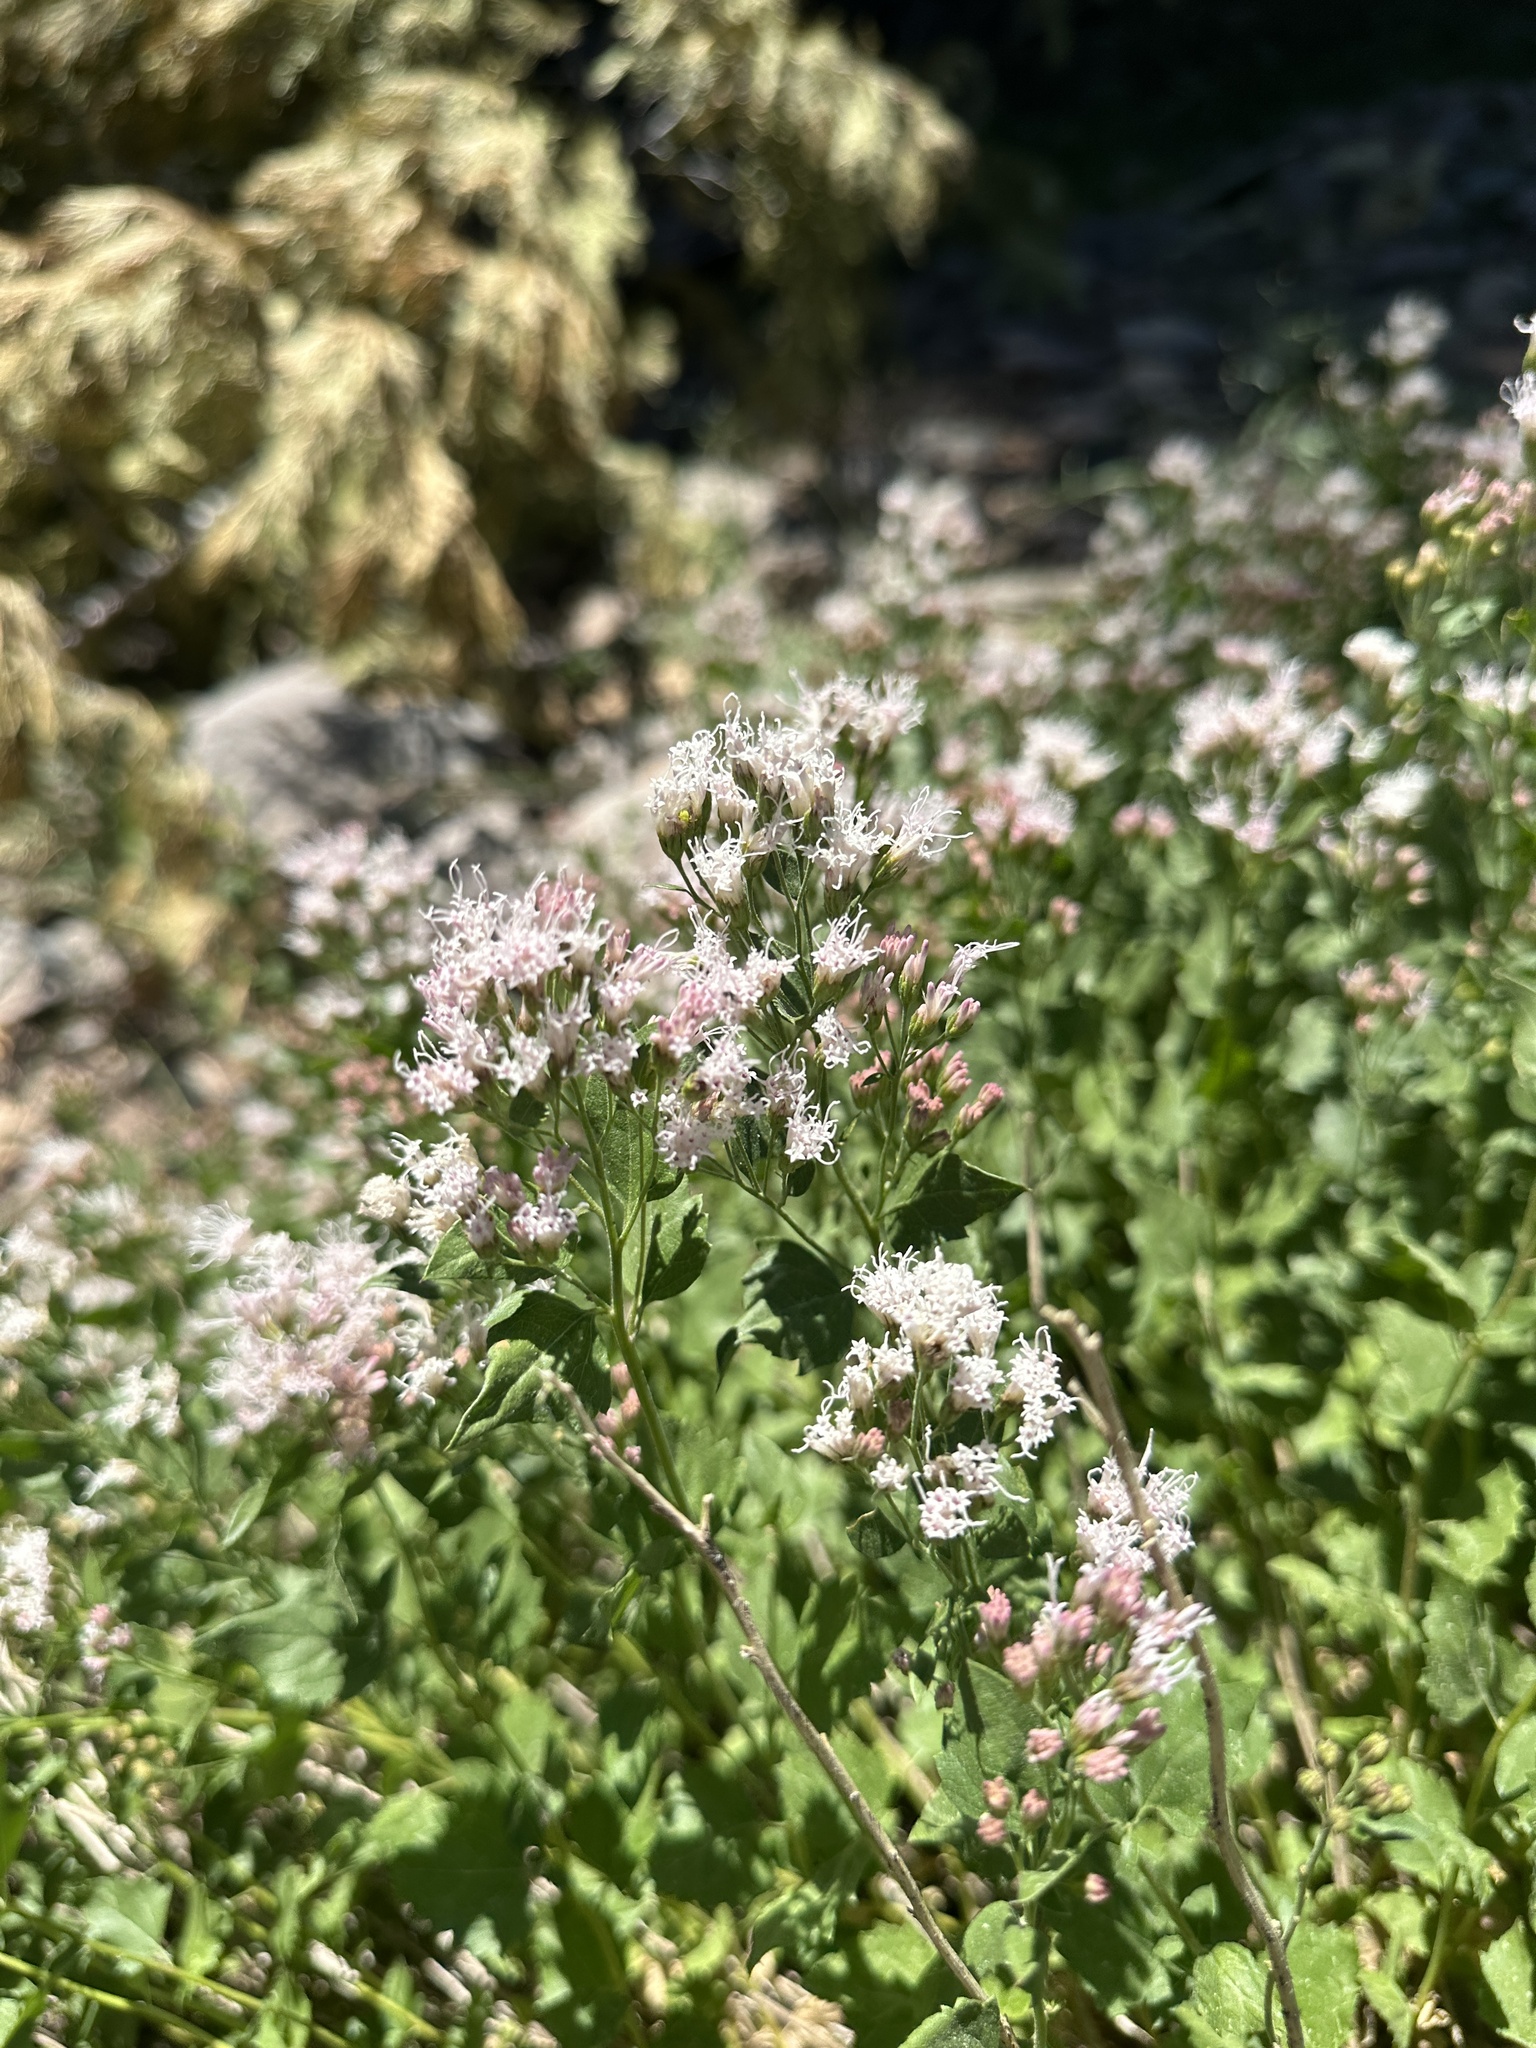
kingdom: Plantae
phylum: Tracheophyta
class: Magnoliopsida
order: Asterales
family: Asteraceae
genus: Ageratina
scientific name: Ageratina occidentalis
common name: Western snakeroot
